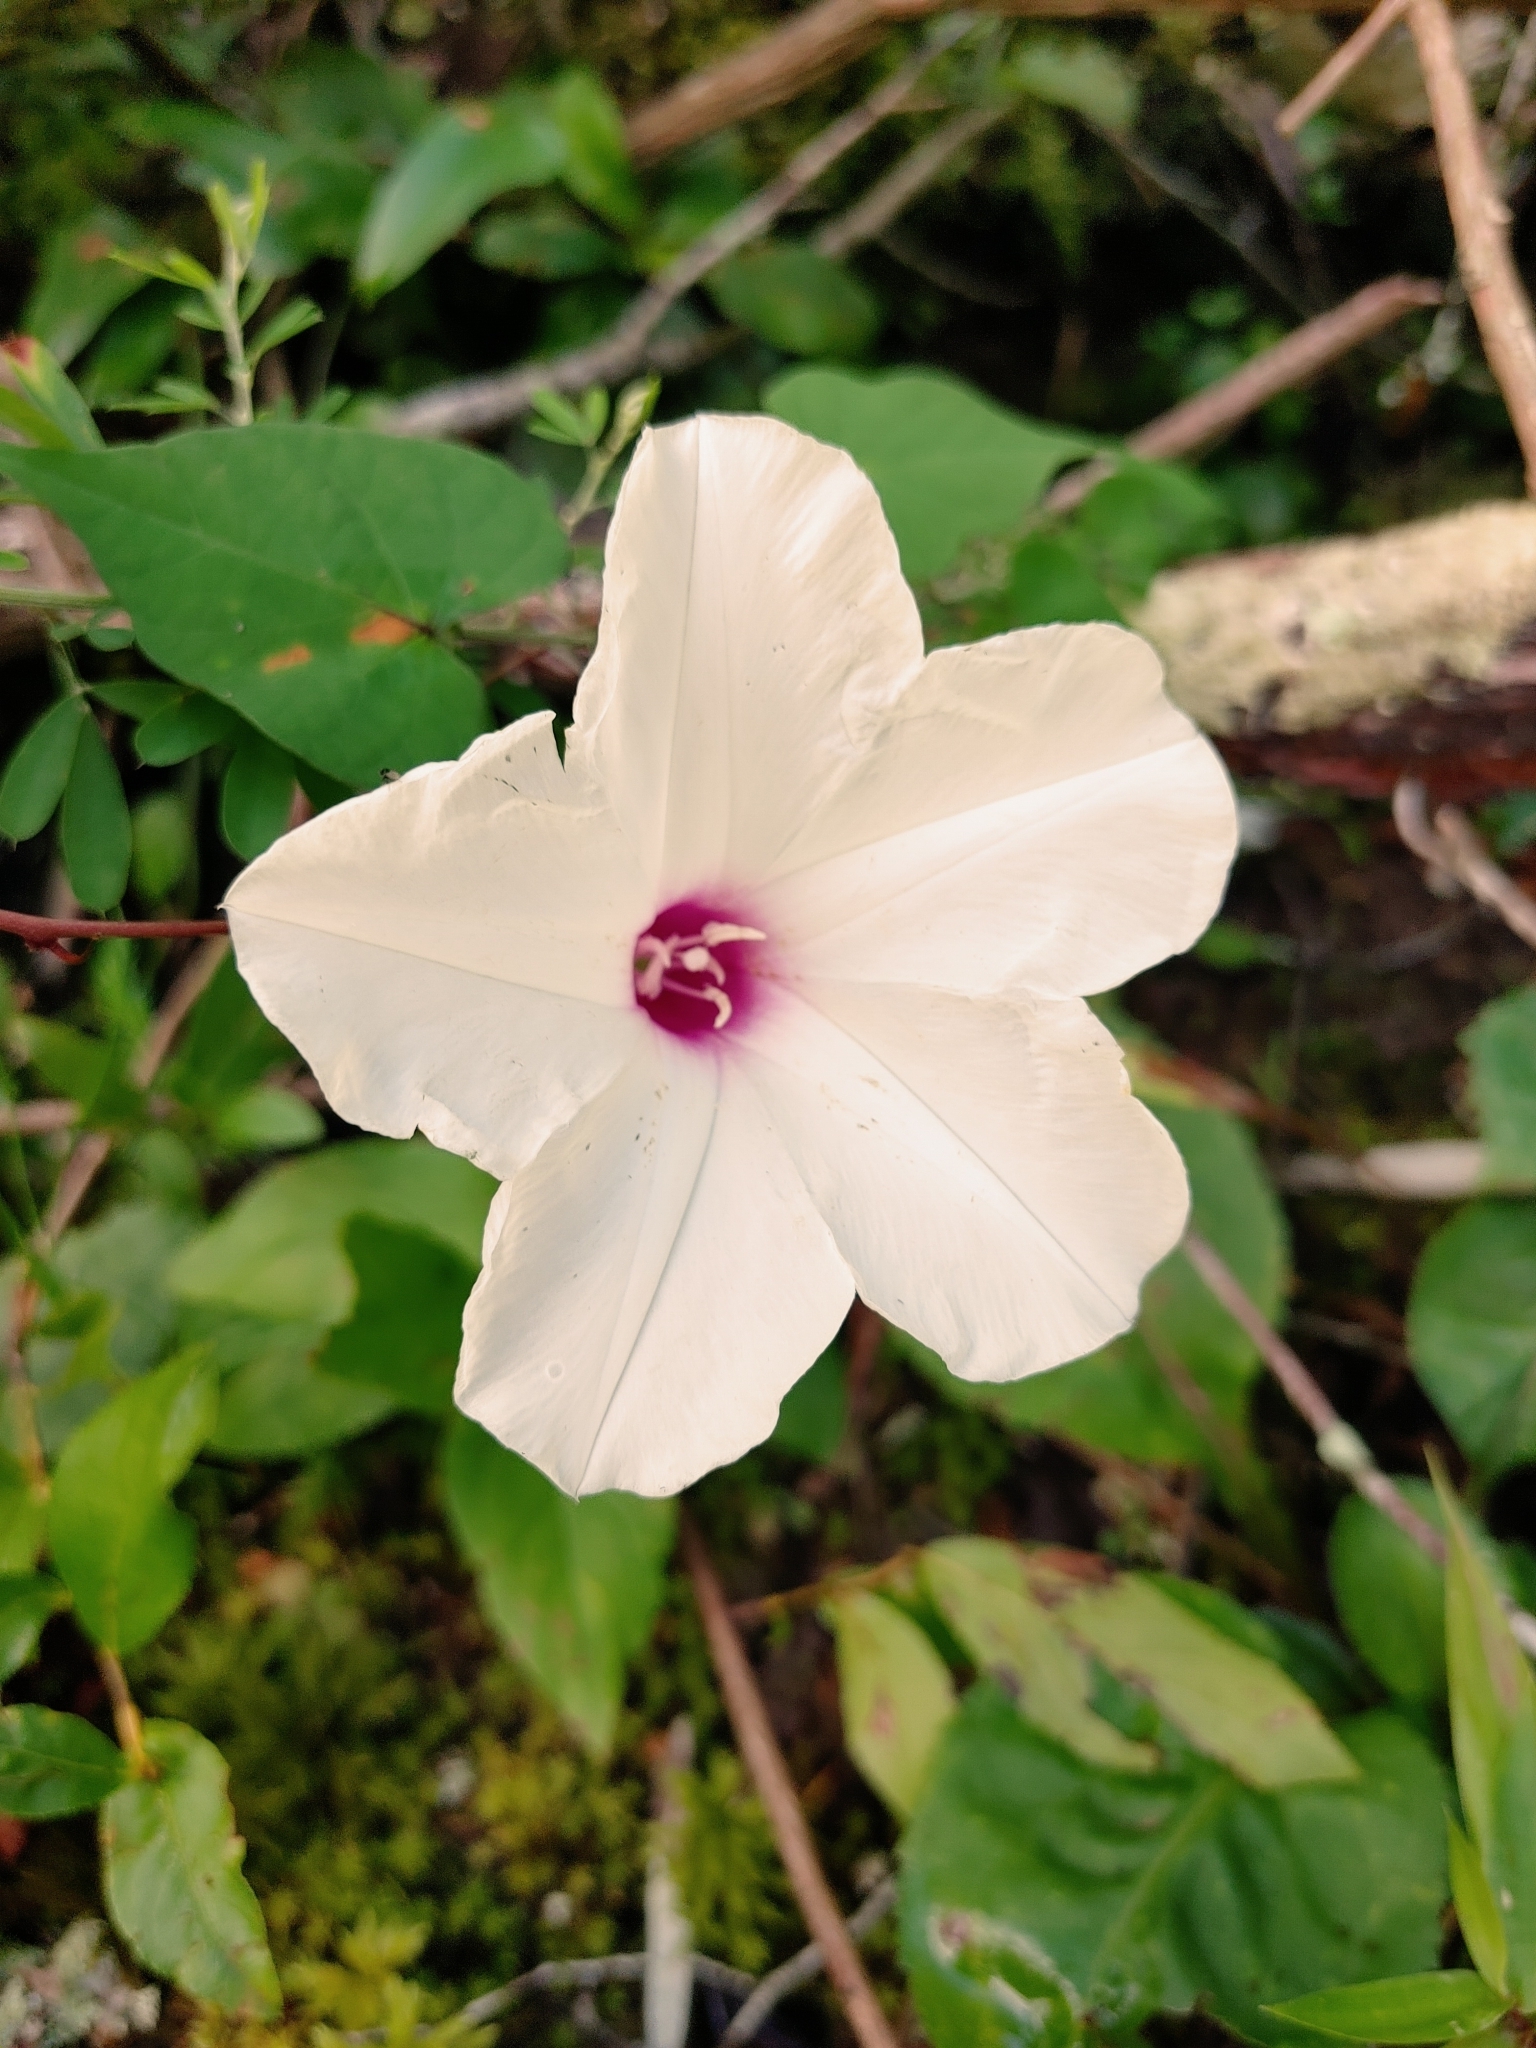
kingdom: Plantae
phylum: Tracheophyta
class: Magnoliopsida
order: Solanales
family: Convolvulaceae
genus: Ipomoea
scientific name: Ipomoea pandurata
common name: Man-of-the-earth
